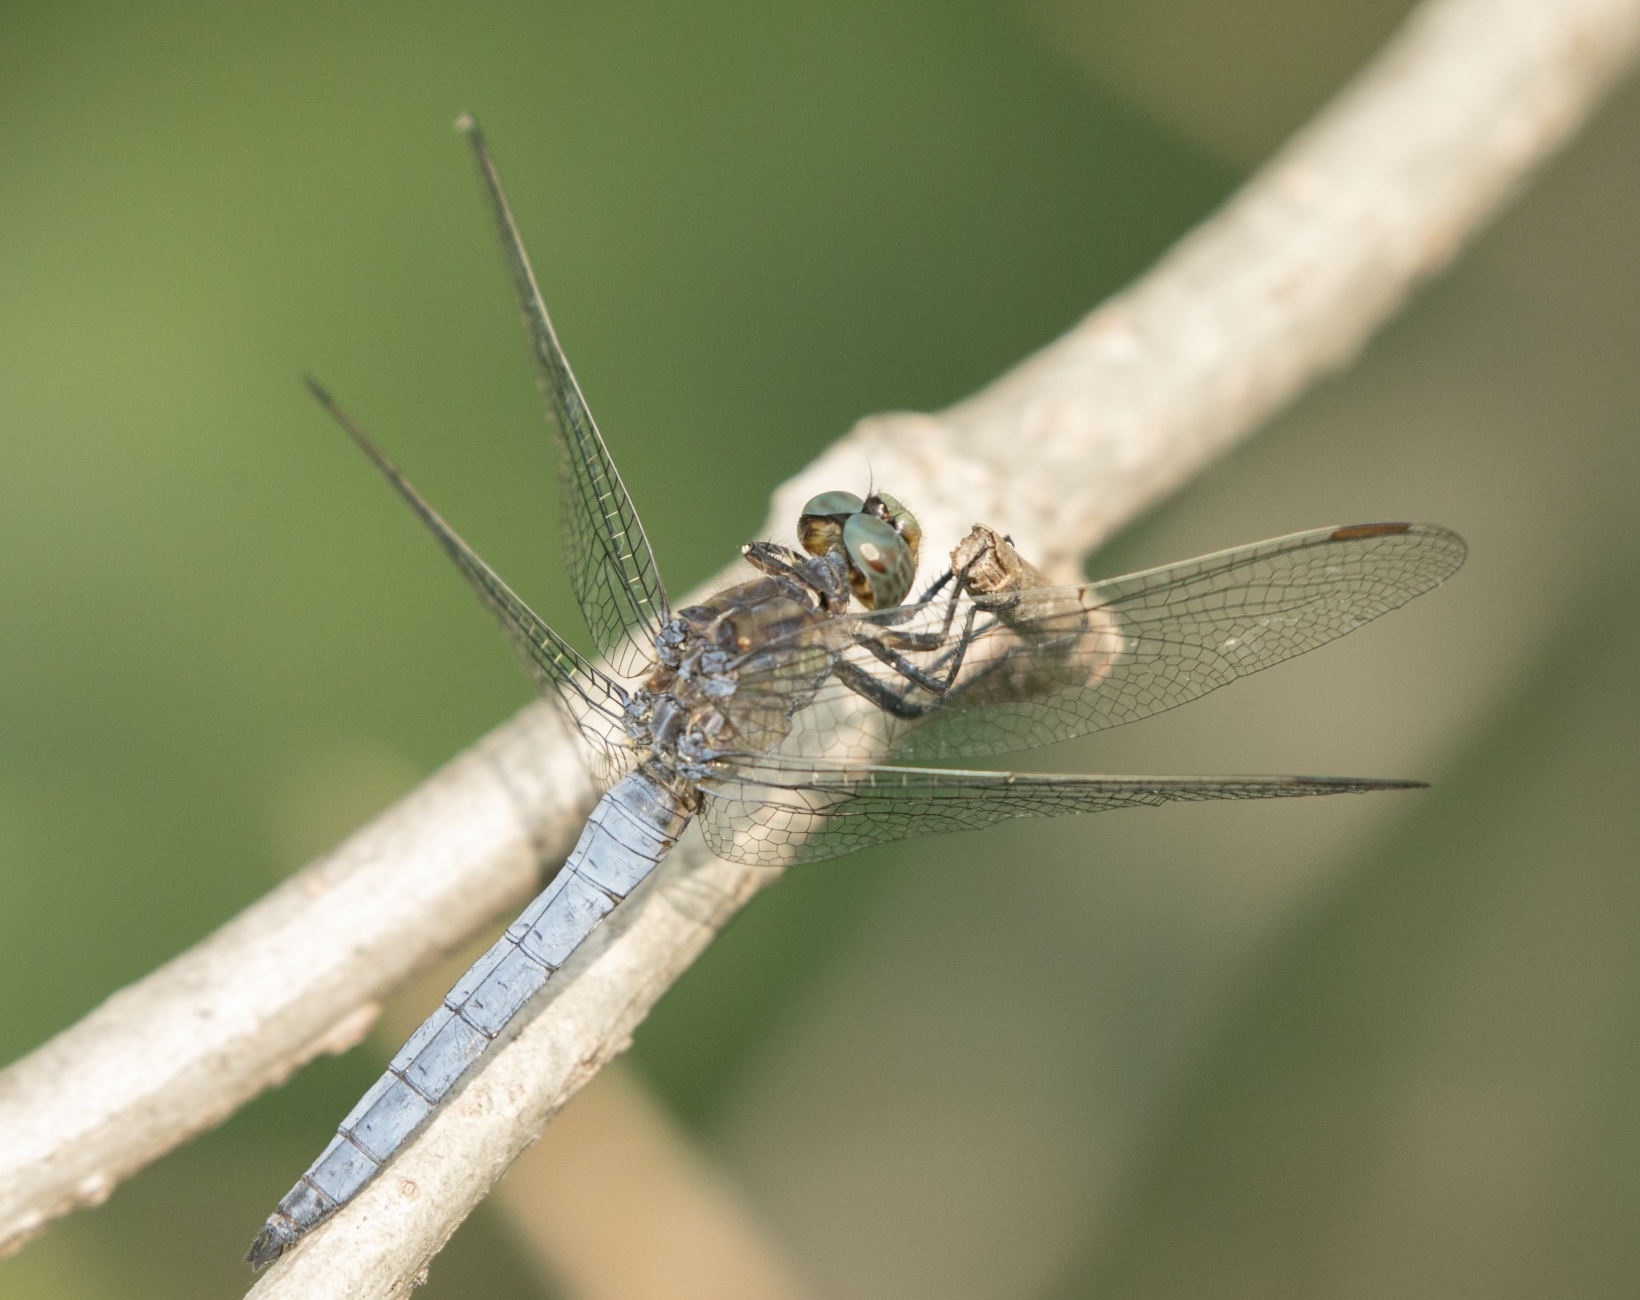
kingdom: Animalia
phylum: Arthropoda
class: Insecta
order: Odonata
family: Libellulidae
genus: Orthetrum
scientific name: Orthetrum coerulescens
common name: Keeled skimmer
